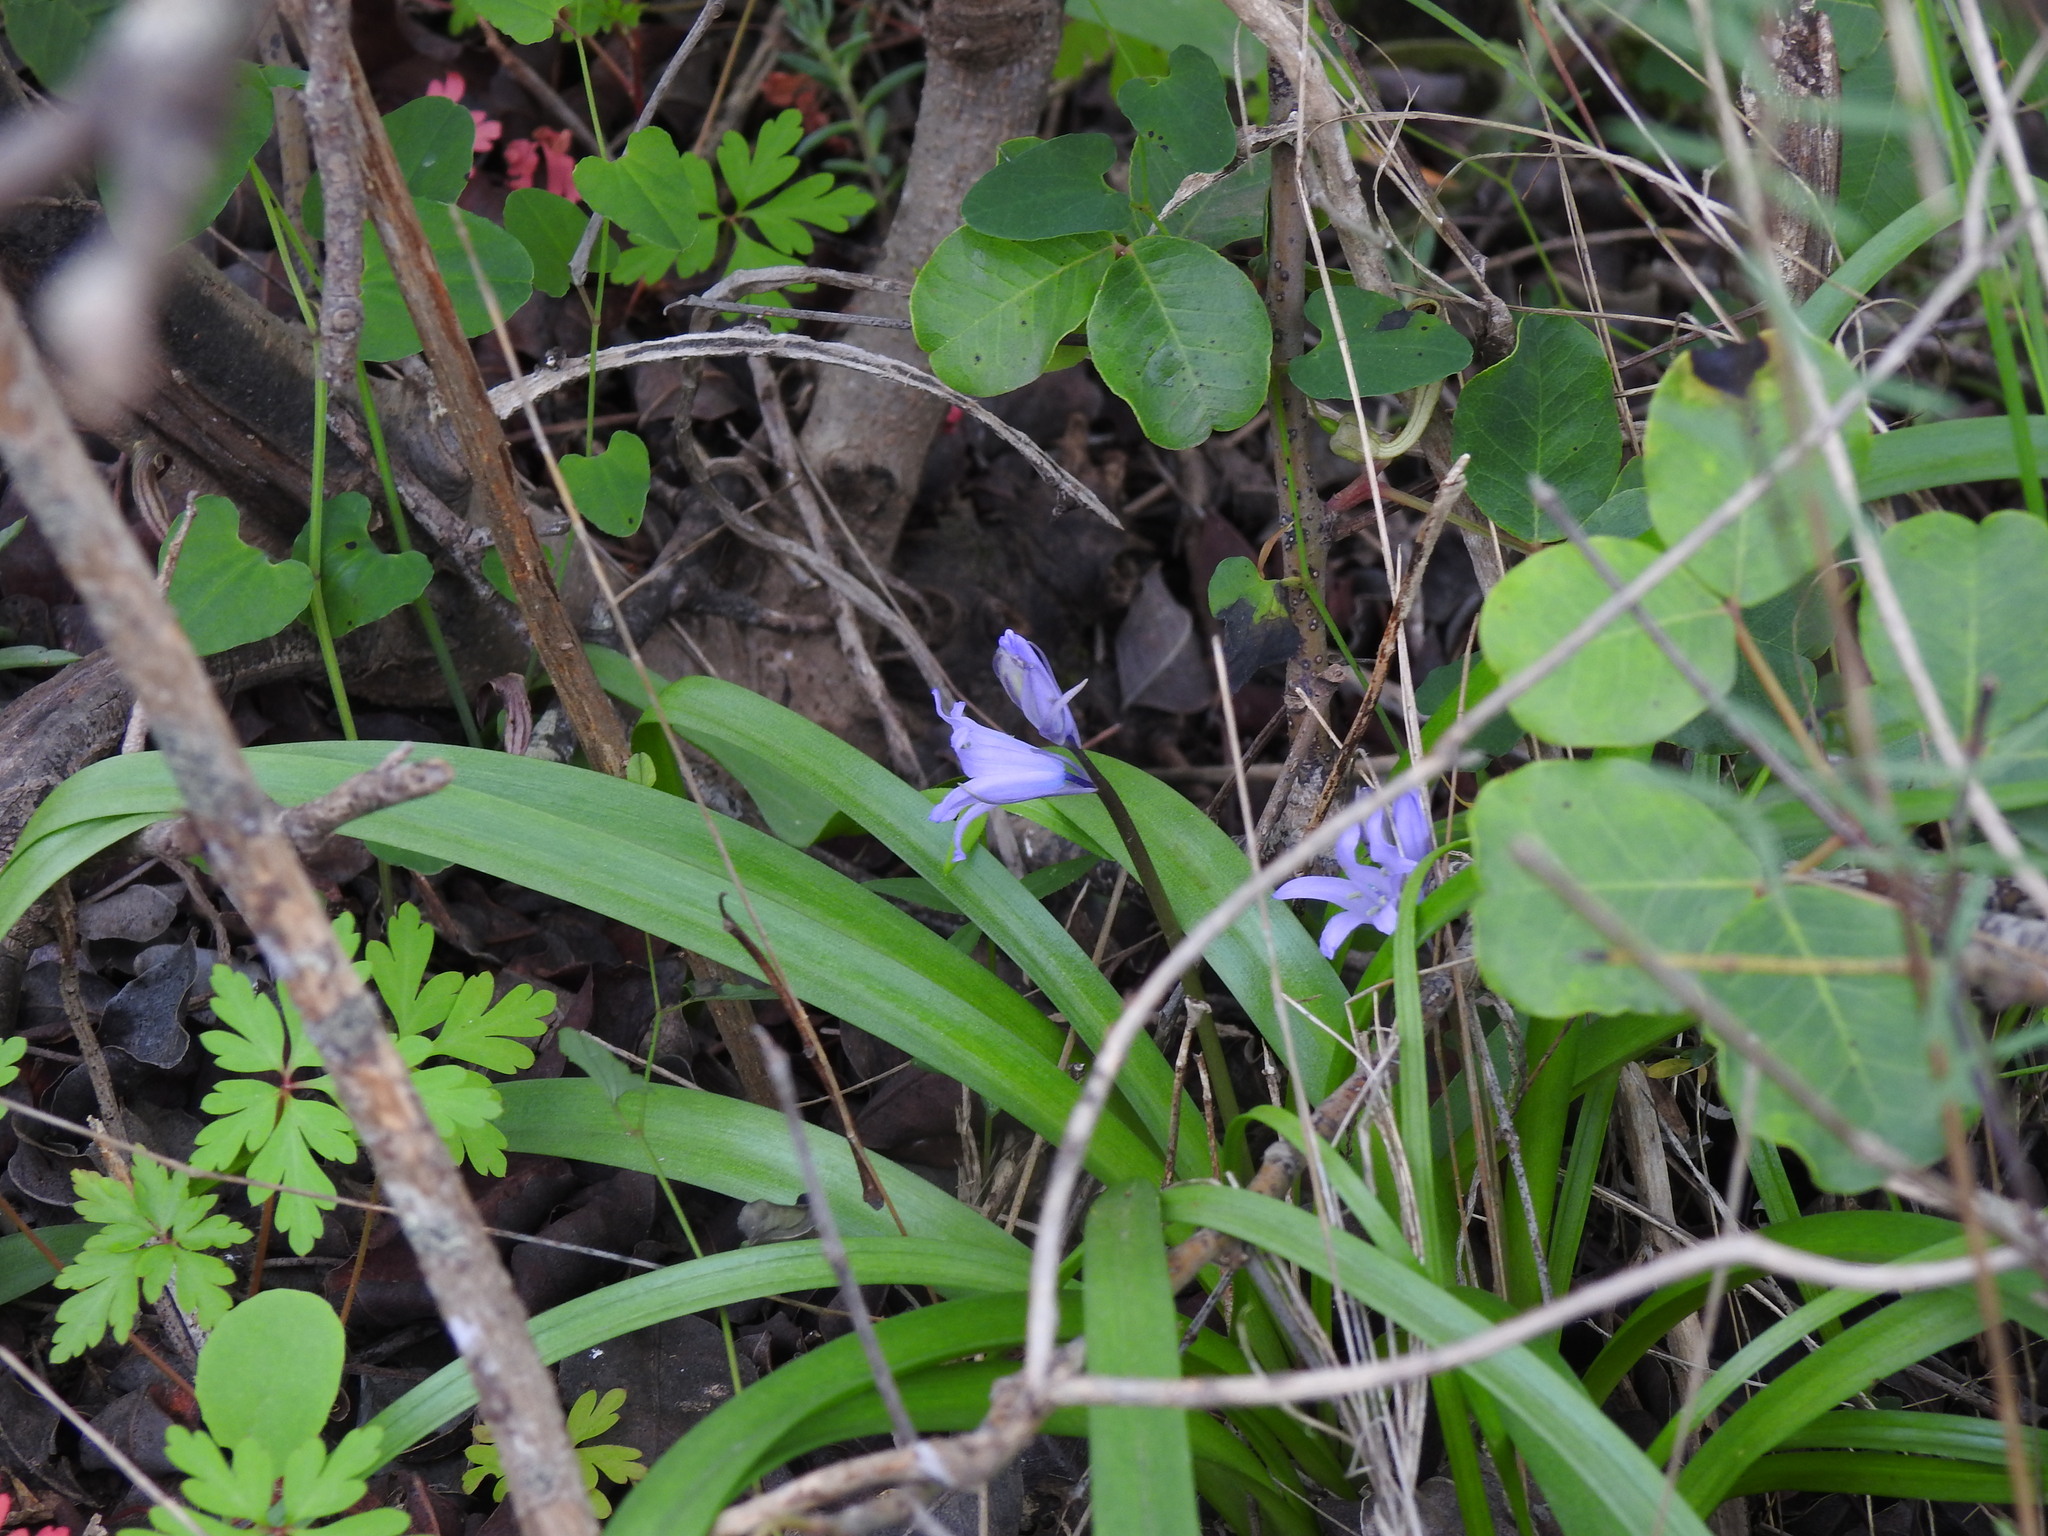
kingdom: Plantae
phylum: Tracheophyta
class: Liliopsida
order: Asparagales
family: Asparagaceae
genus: Hyacinthoides
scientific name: Hyacinthoides hispanica
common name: Spanish bluebell
